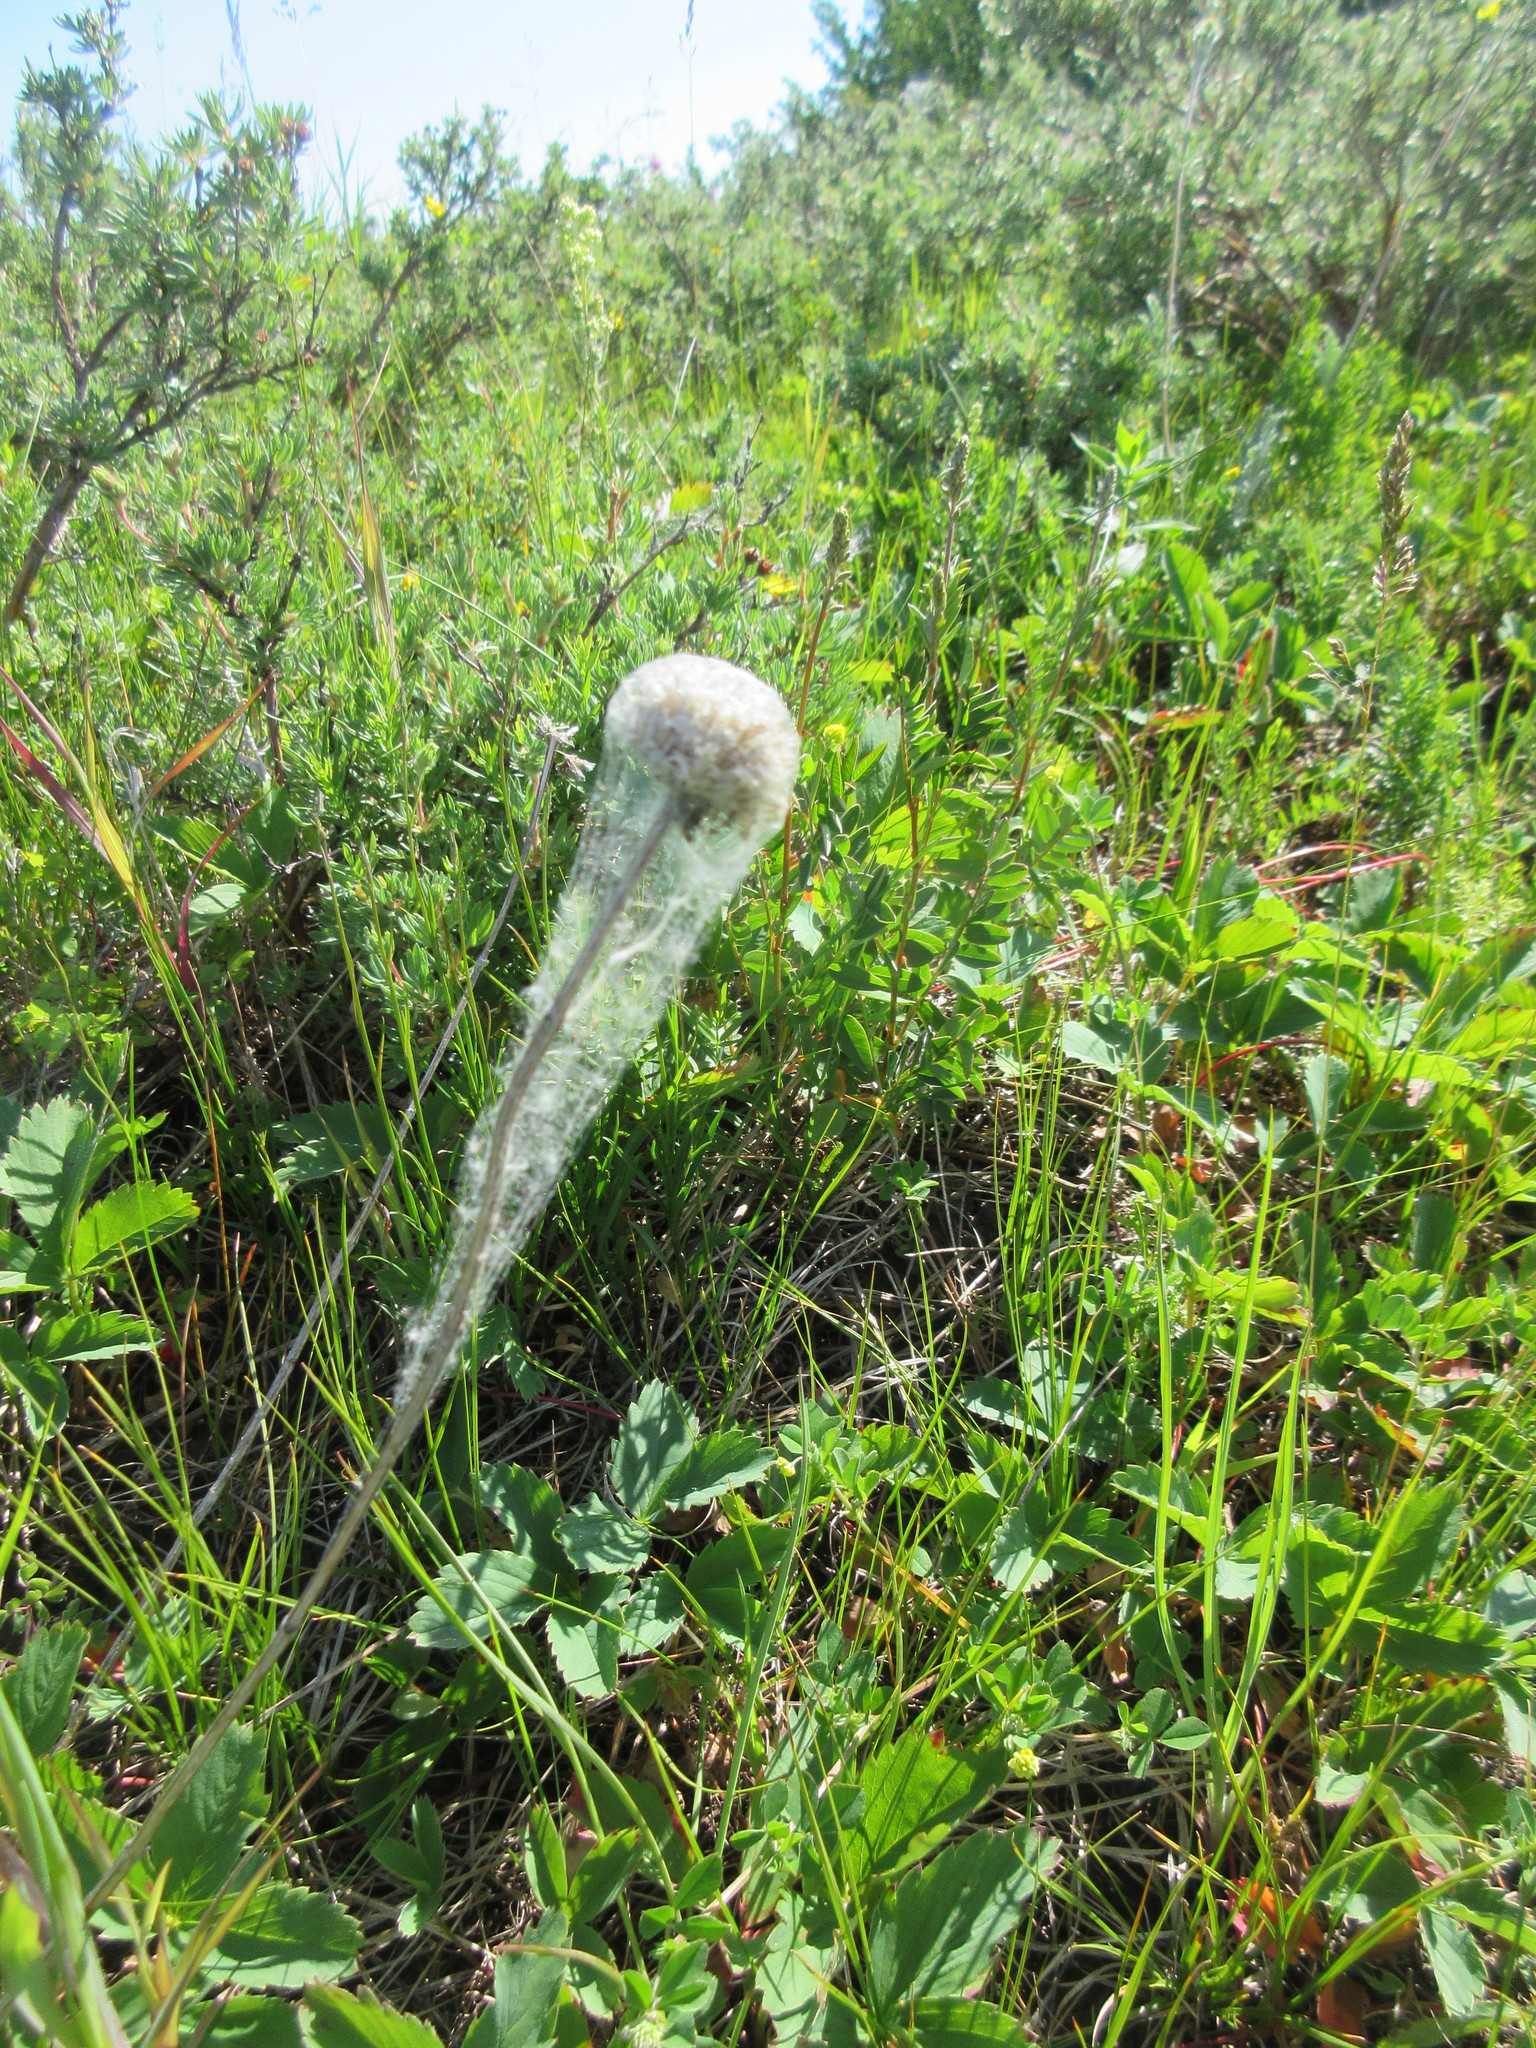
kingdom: Plantae
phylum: Tracheophyta
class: Magnoliopsida
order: Asterales
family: Asteraceae
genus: Gaillardia
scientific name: Gaillardia aristata
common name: Blanket-flower
